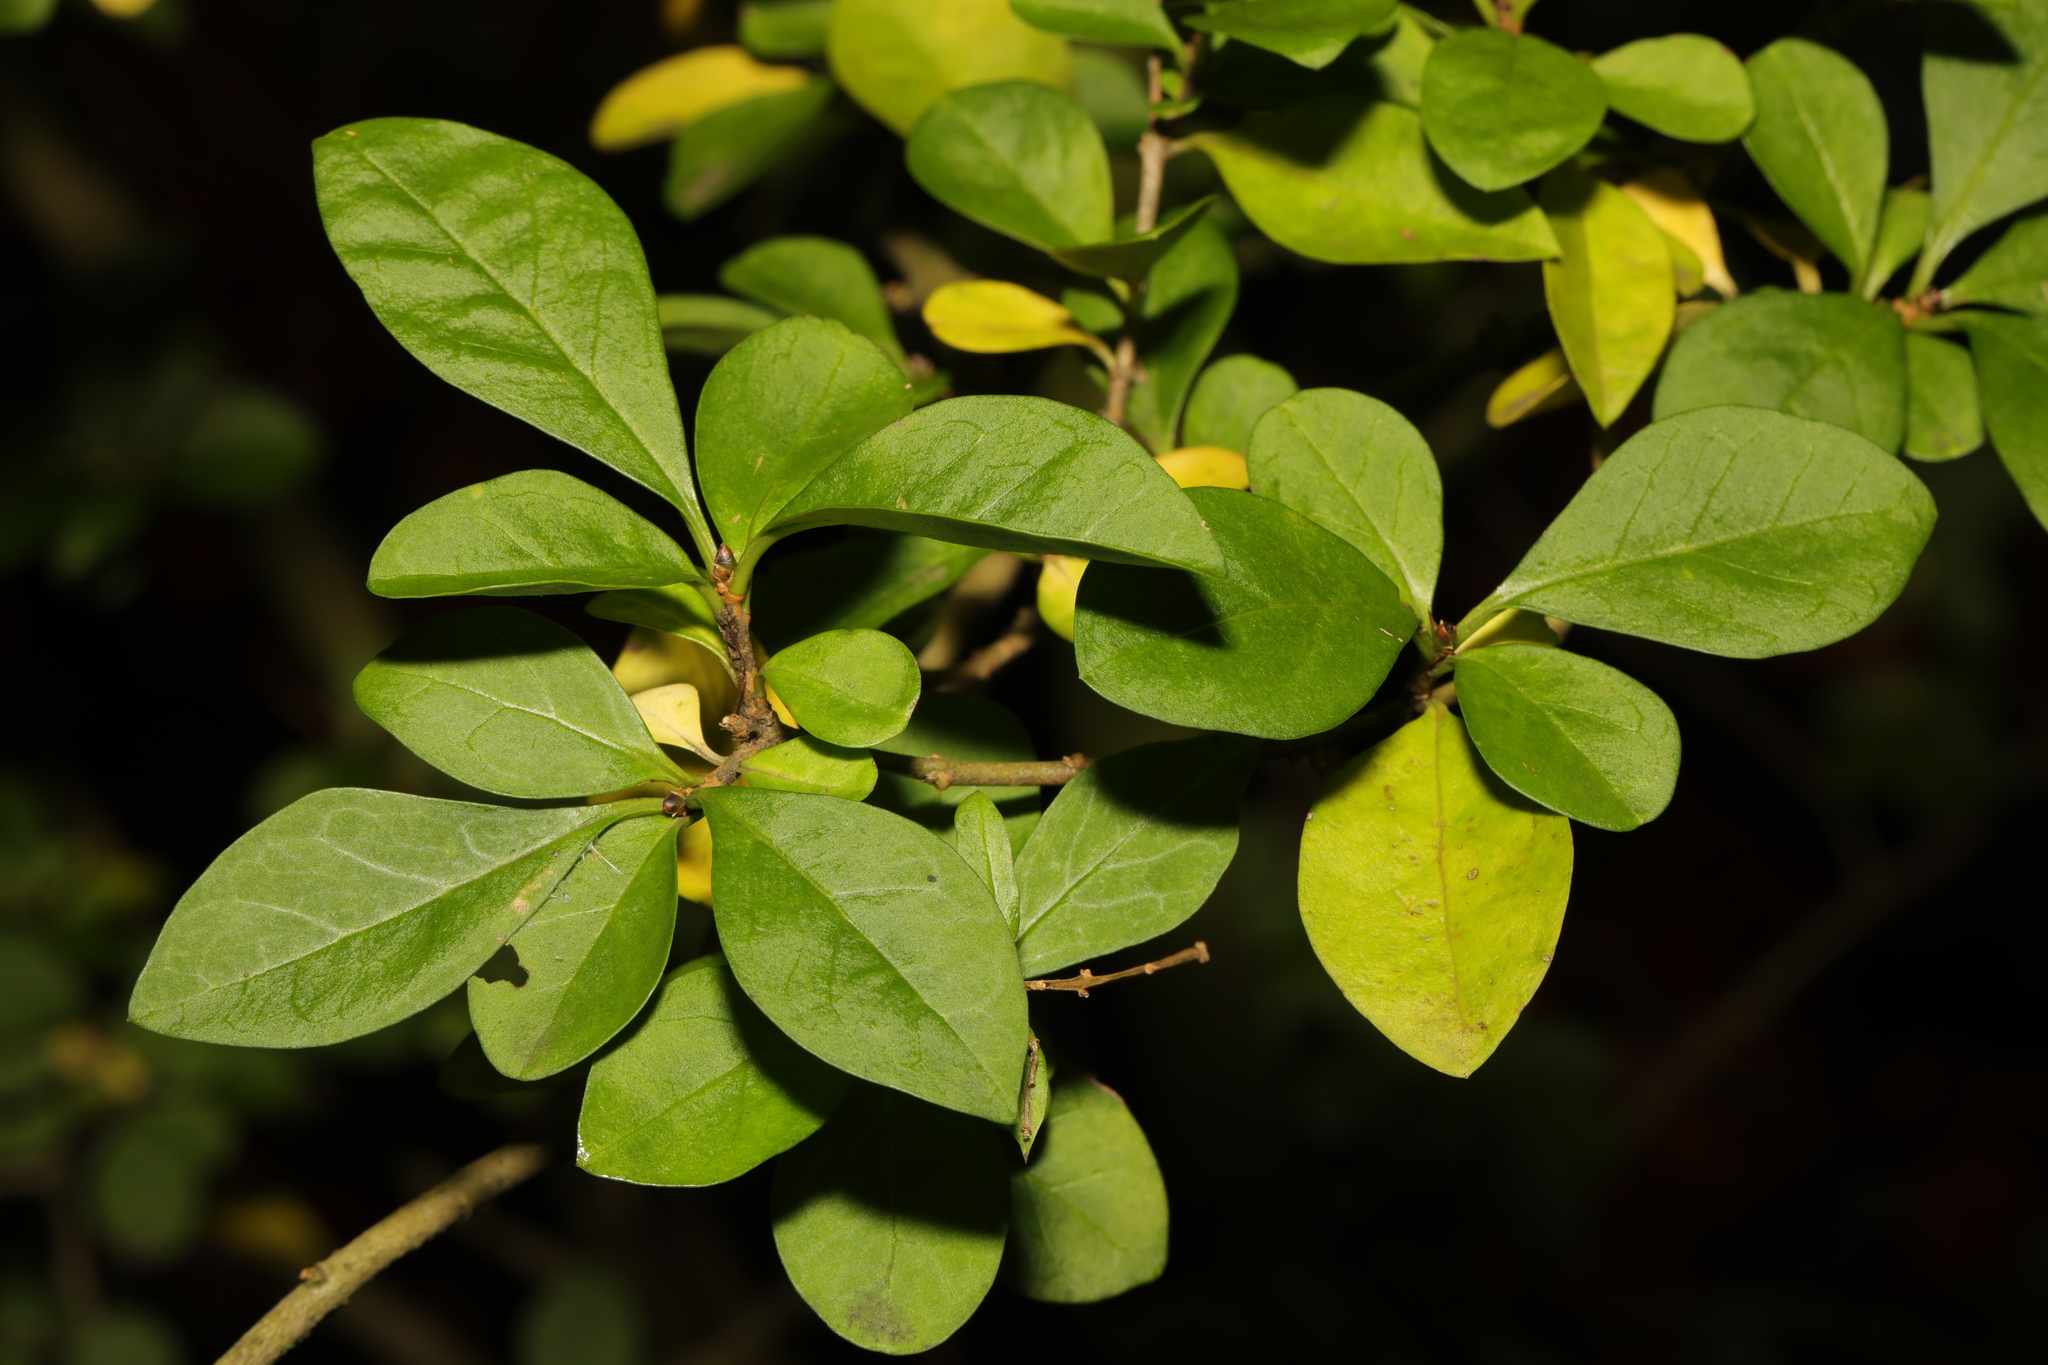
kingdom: Plantae
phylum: Tracheophyta
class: Magnoliopsida
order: Lamiales
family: Oleaceae
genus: Ligustrum
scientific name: Ligustrum ovalifolium
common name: California privet
